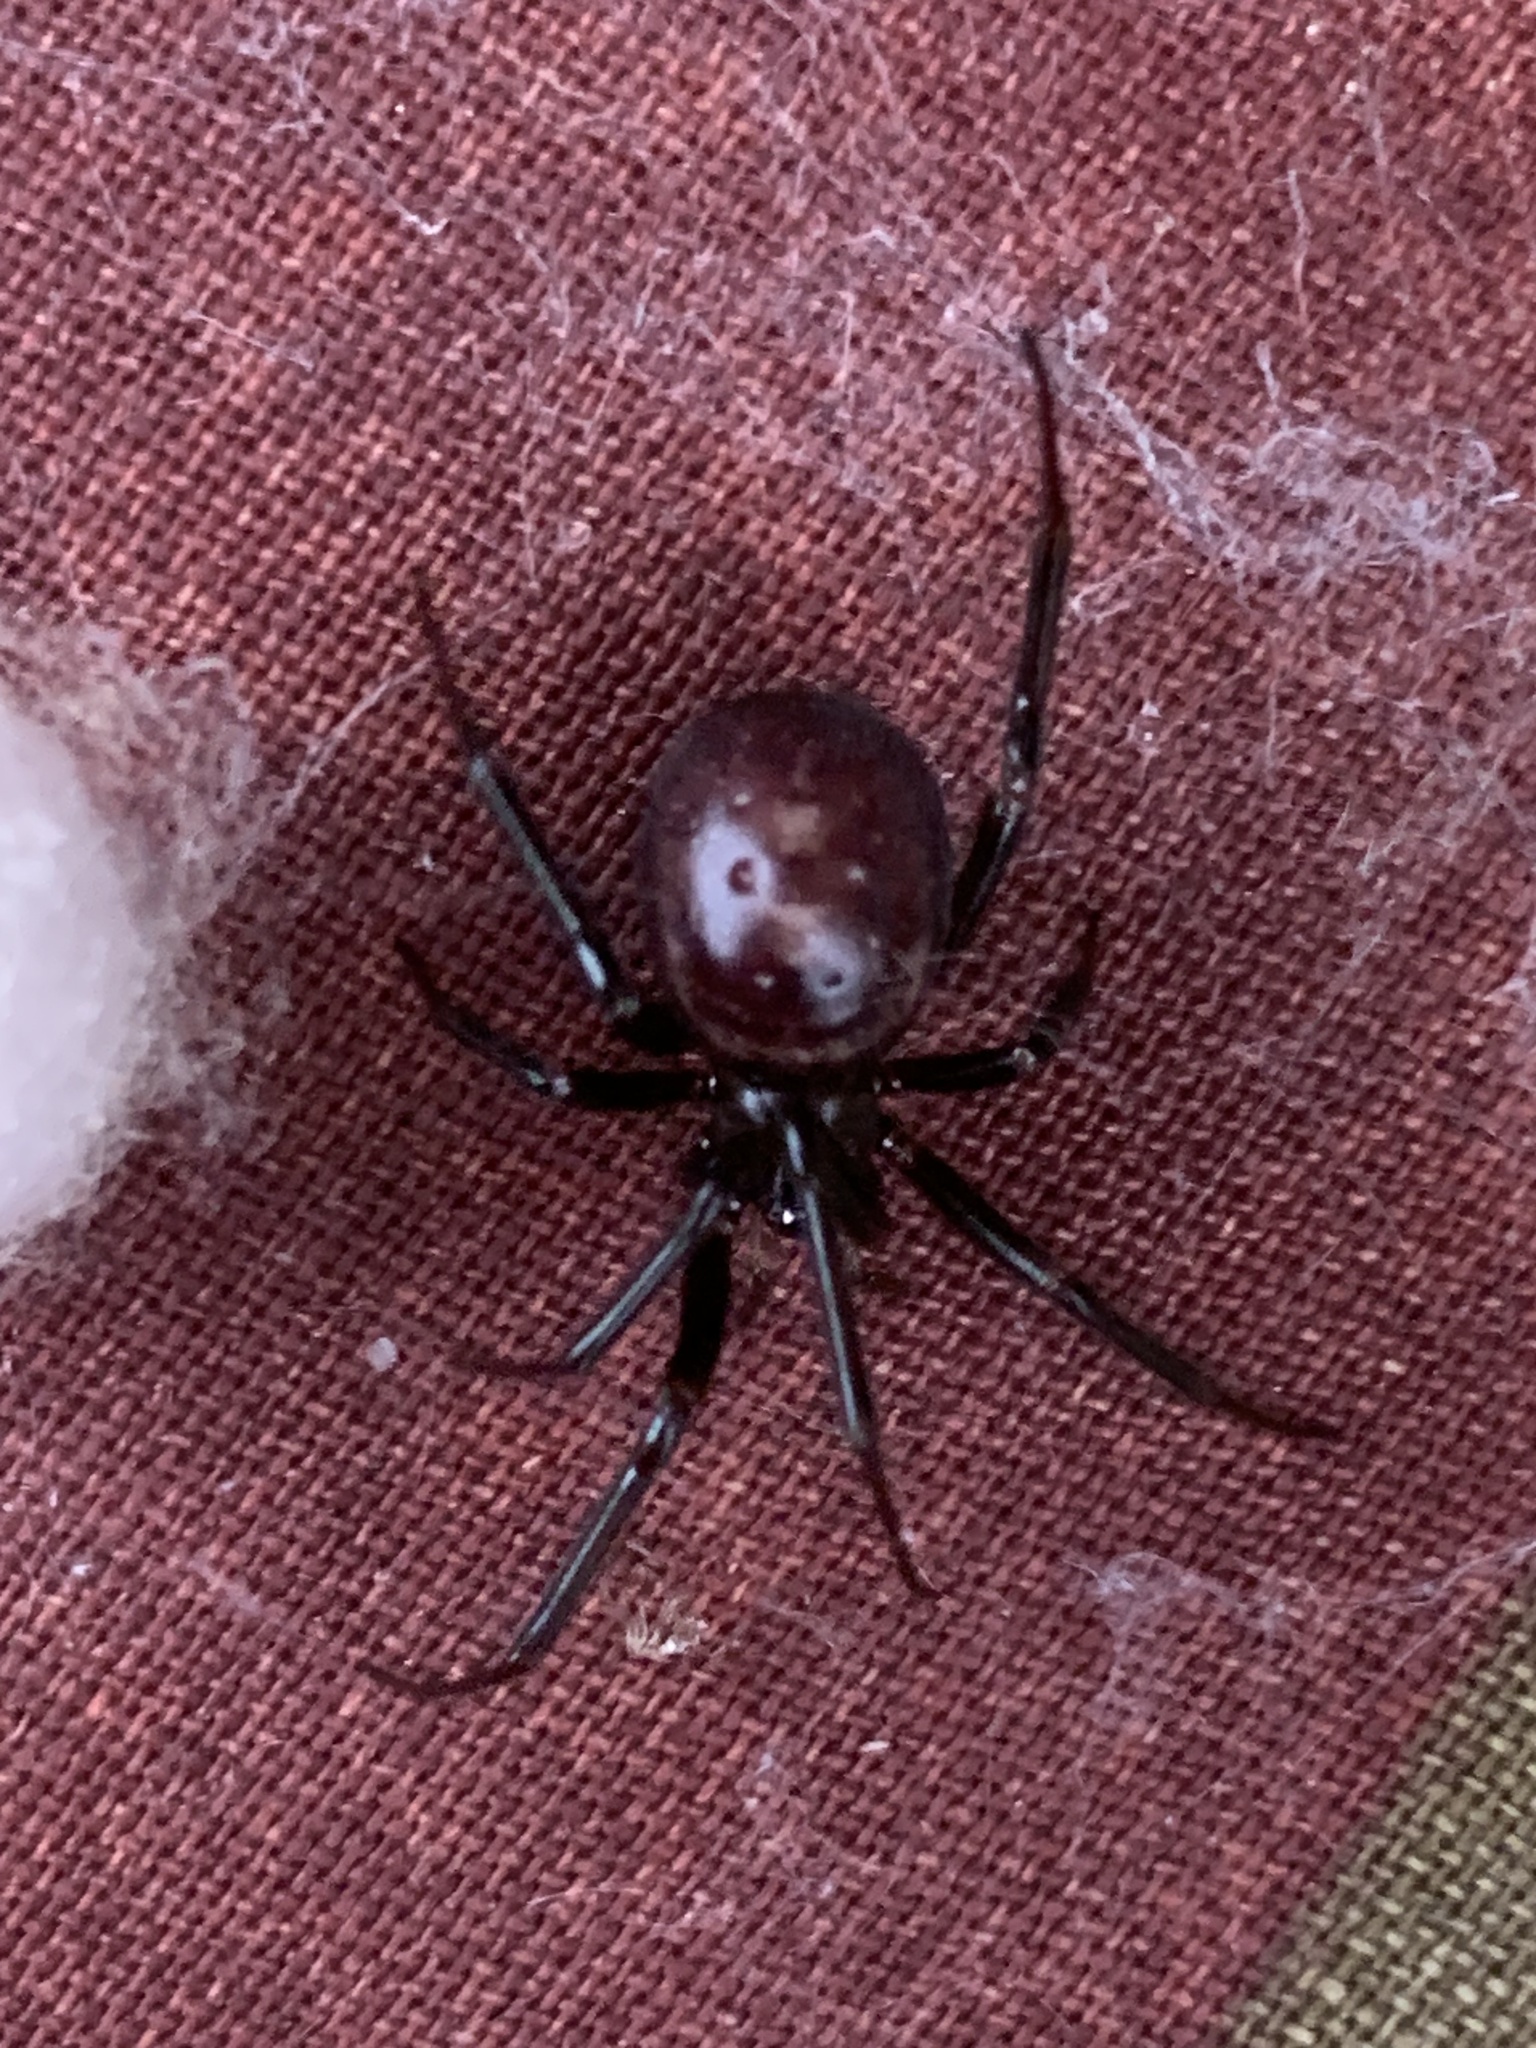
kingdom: Animalia
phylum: Arthropoda
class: Arachnida
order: Araneae
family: Theridiidae
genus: Steatoda
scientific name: Steatoda grossa
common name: False black widow
